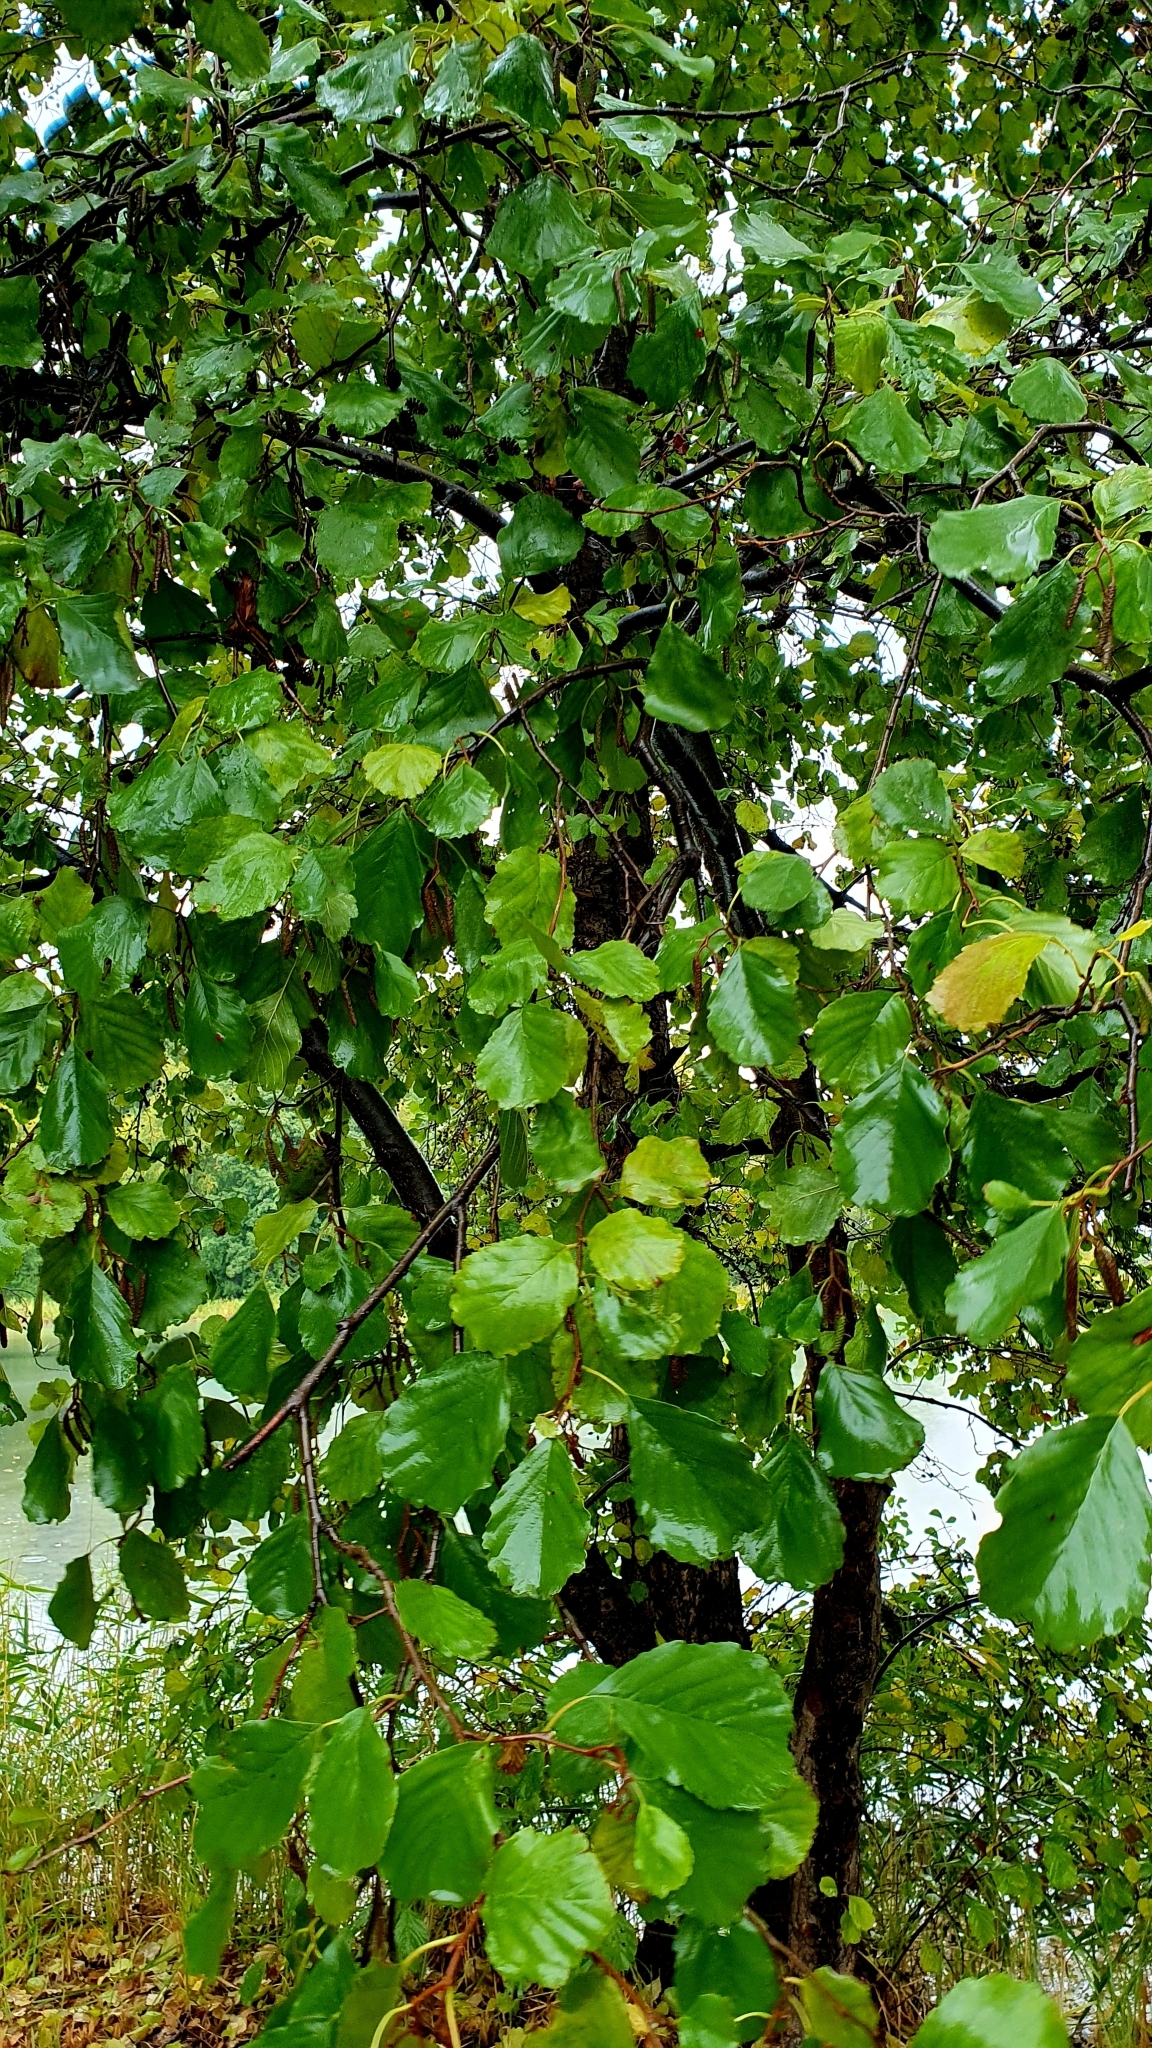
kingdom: Plantae
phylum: Tracheophyta
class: Magnoliopsida
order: Fagales
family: Betulaceae
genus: Alnus
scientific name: Alnus glutinosa
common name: Black alder
